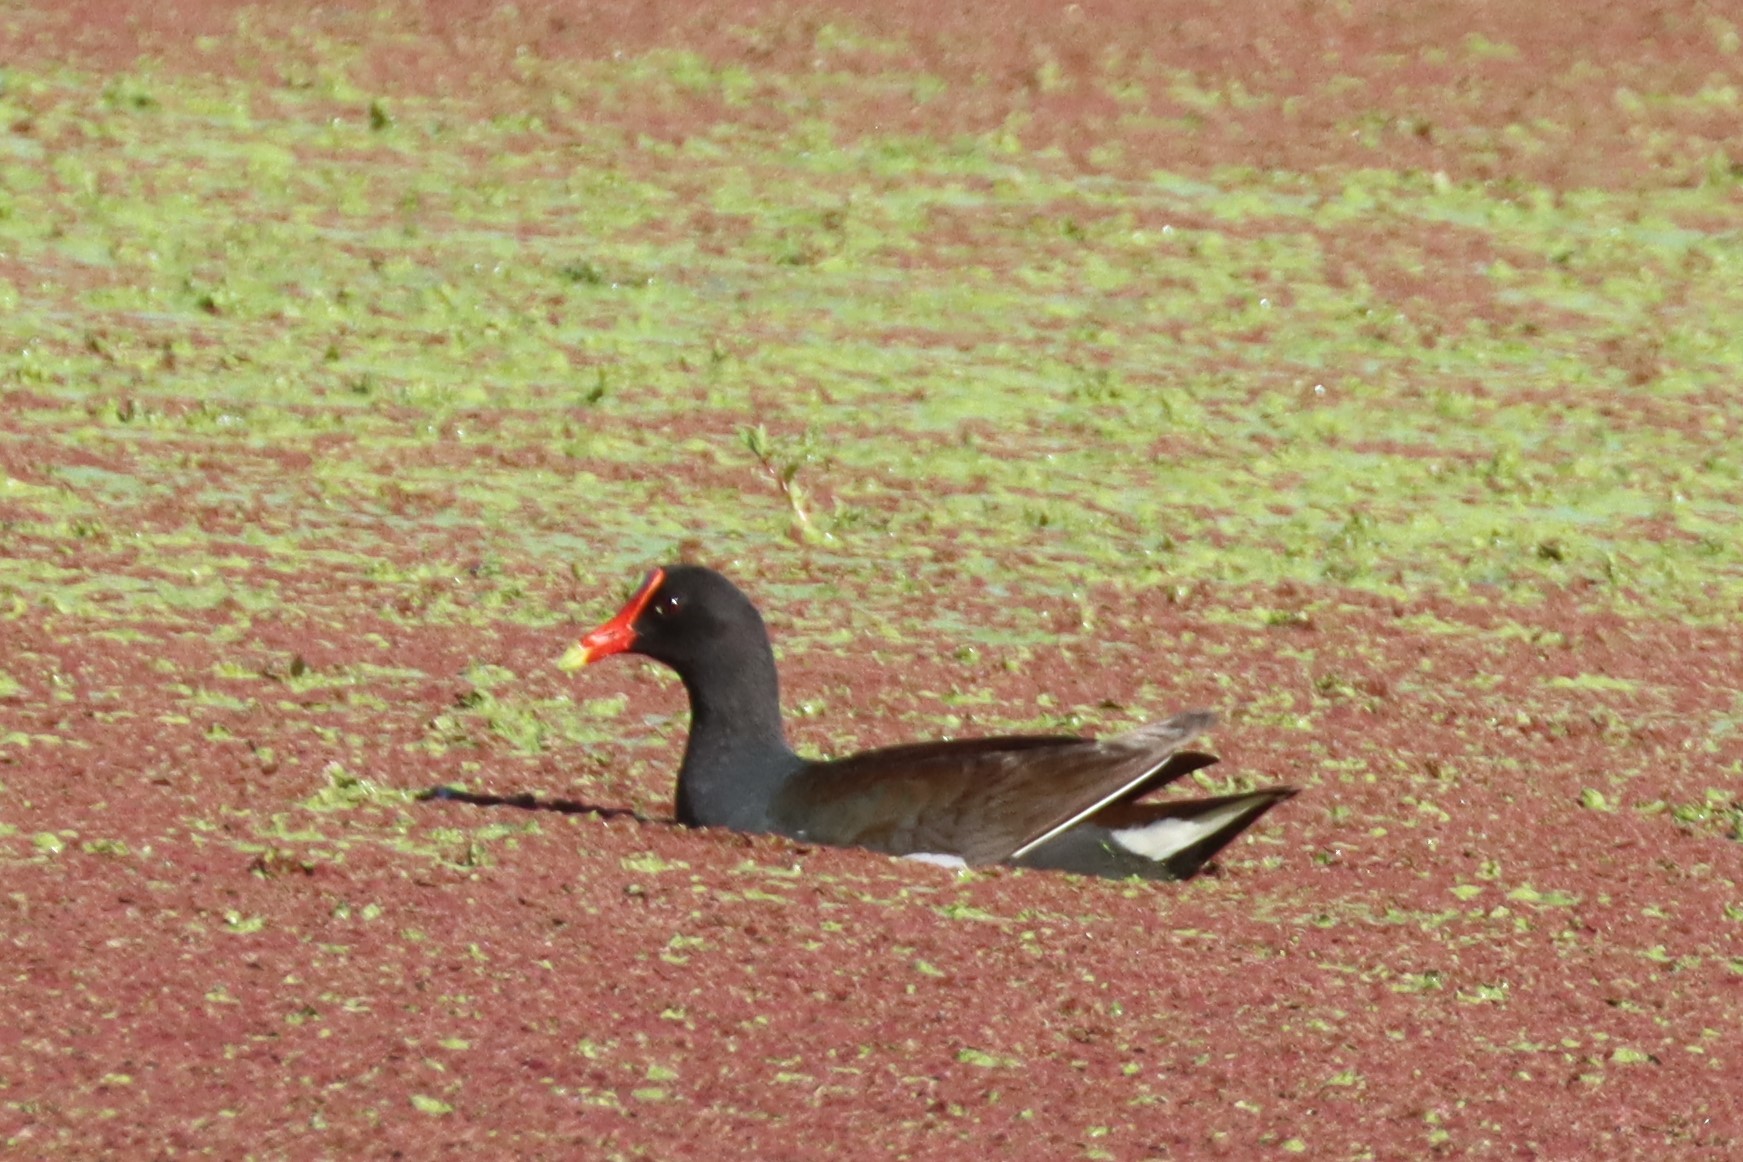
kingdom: Animalia
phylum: Chordata
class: Aves
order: Gruiformes
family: Rallidae
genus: Gallinula
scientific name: Gallinula chloropus
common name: Common moorhen
